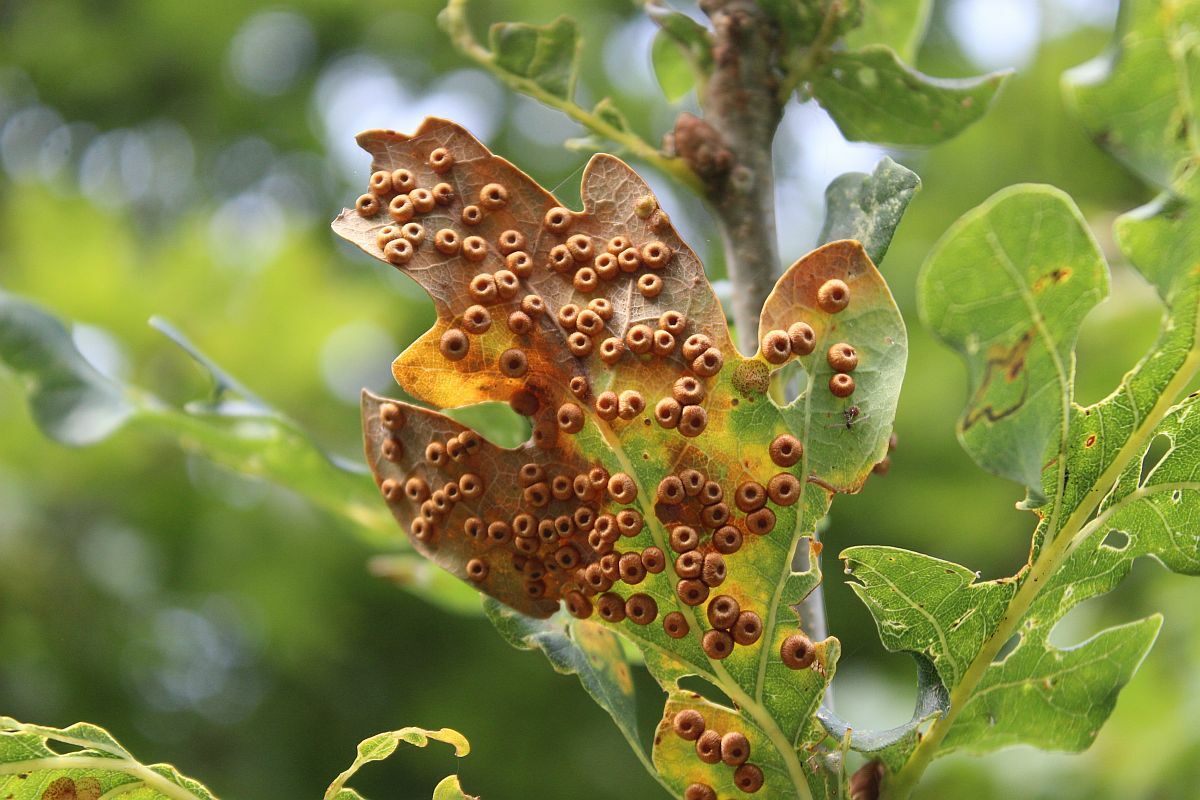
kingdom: Animalia
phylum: Arthropoda
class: Insecta
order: Hymenoptera
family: Cynipidae
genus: Neuroterus
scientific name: Neuroterus numismalis
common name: Silk-button spangle gall
